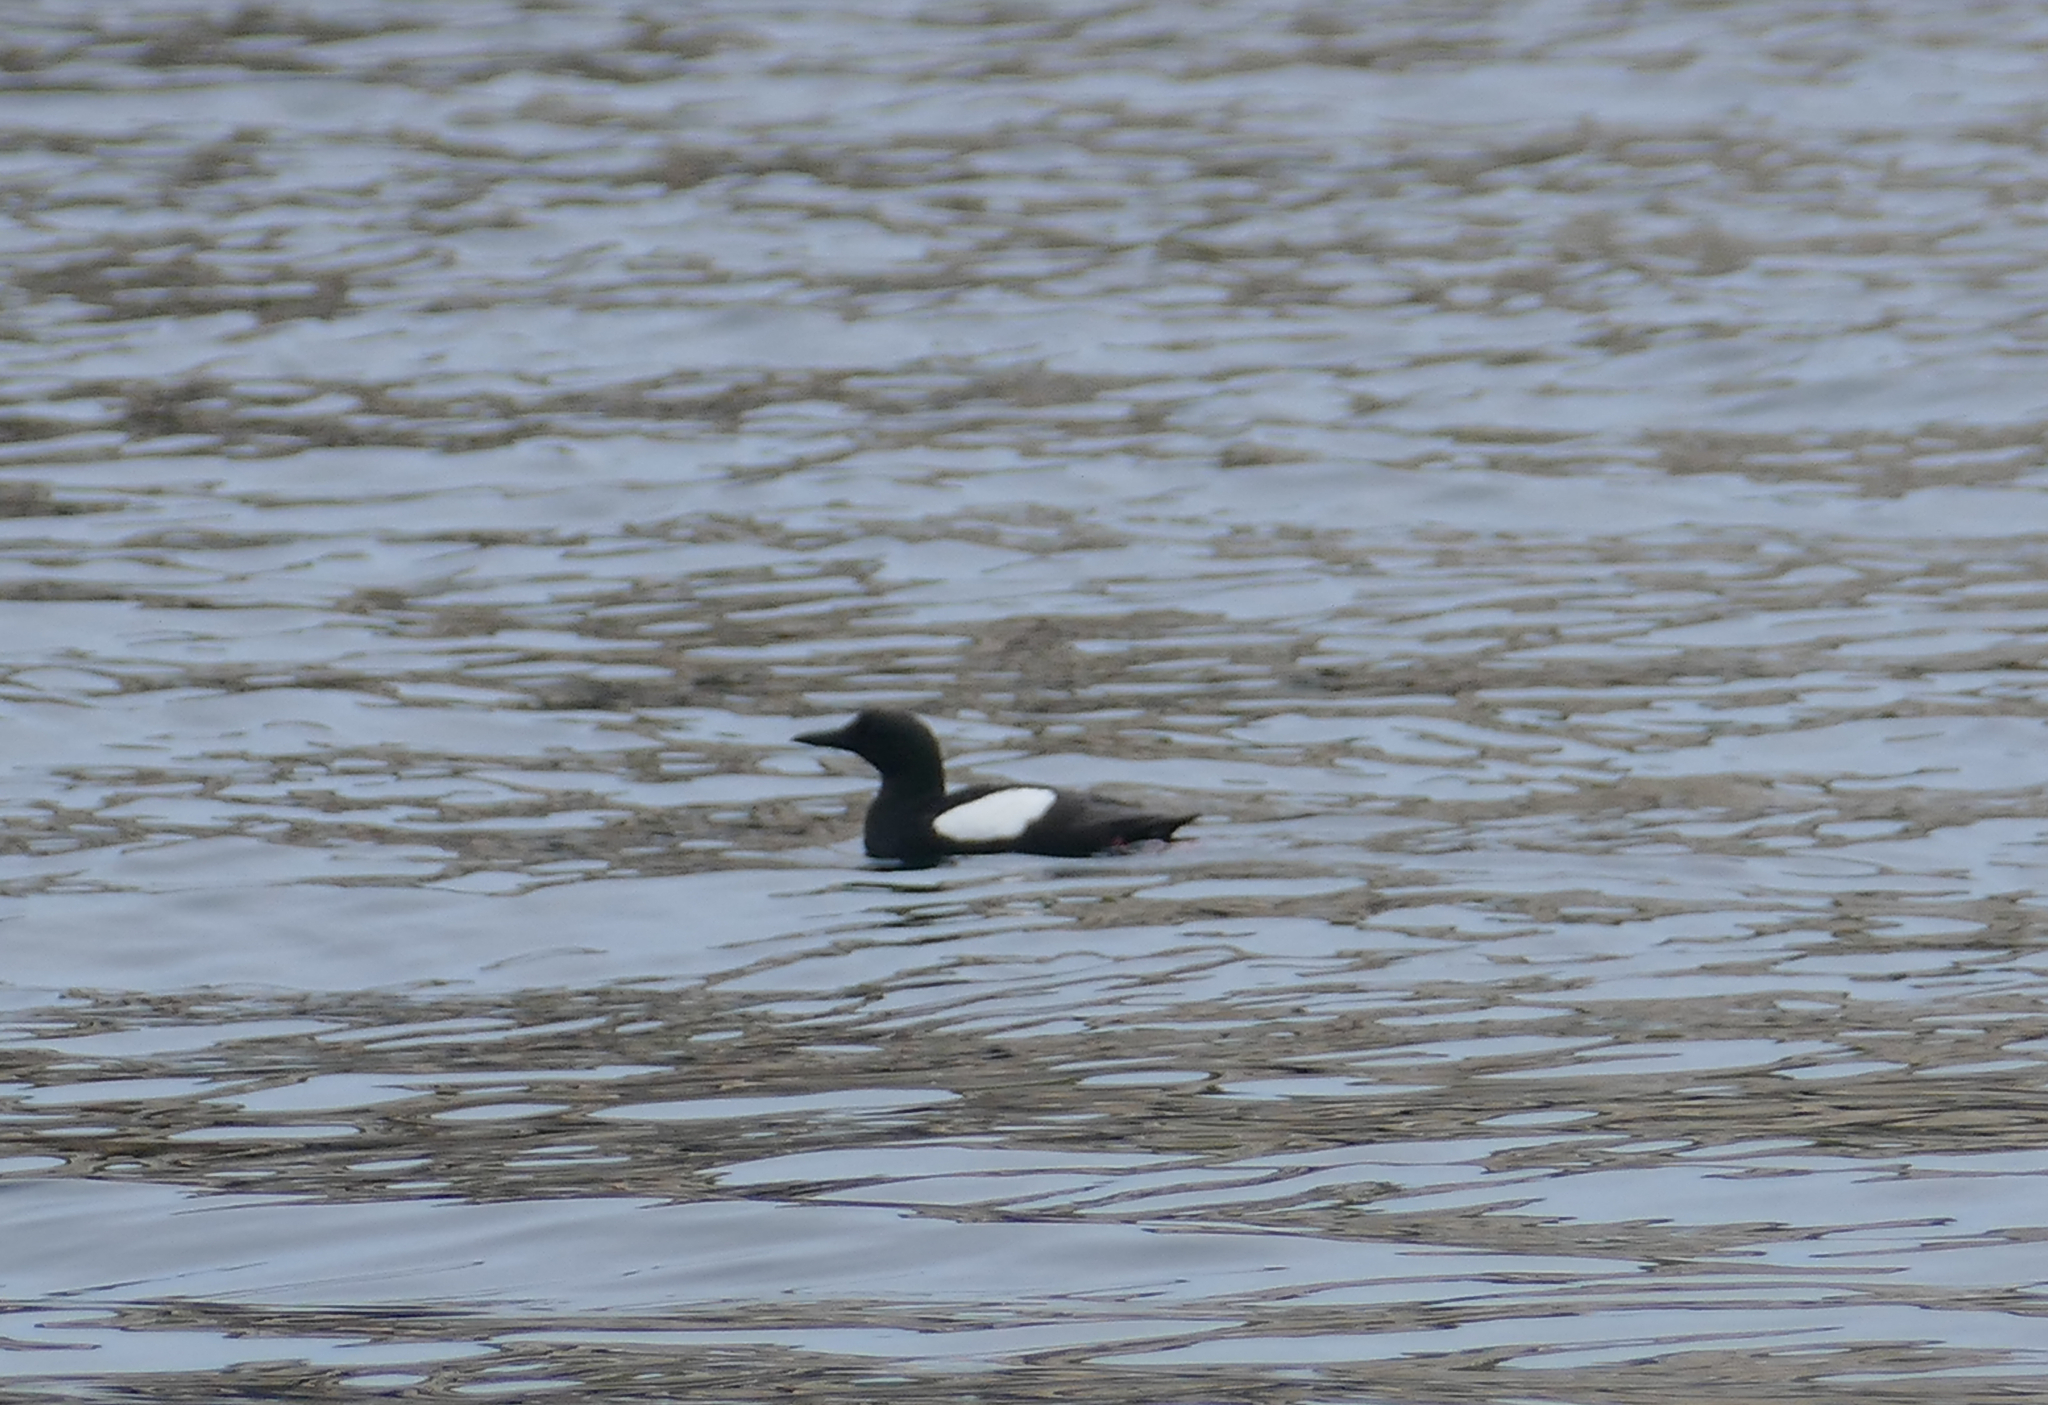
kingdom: Animalia
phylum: Chordata
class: Aves
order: Charadriiformes
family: Alcidae
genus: Cepphus
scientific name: Cepphus grylle
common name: Black guillemot
